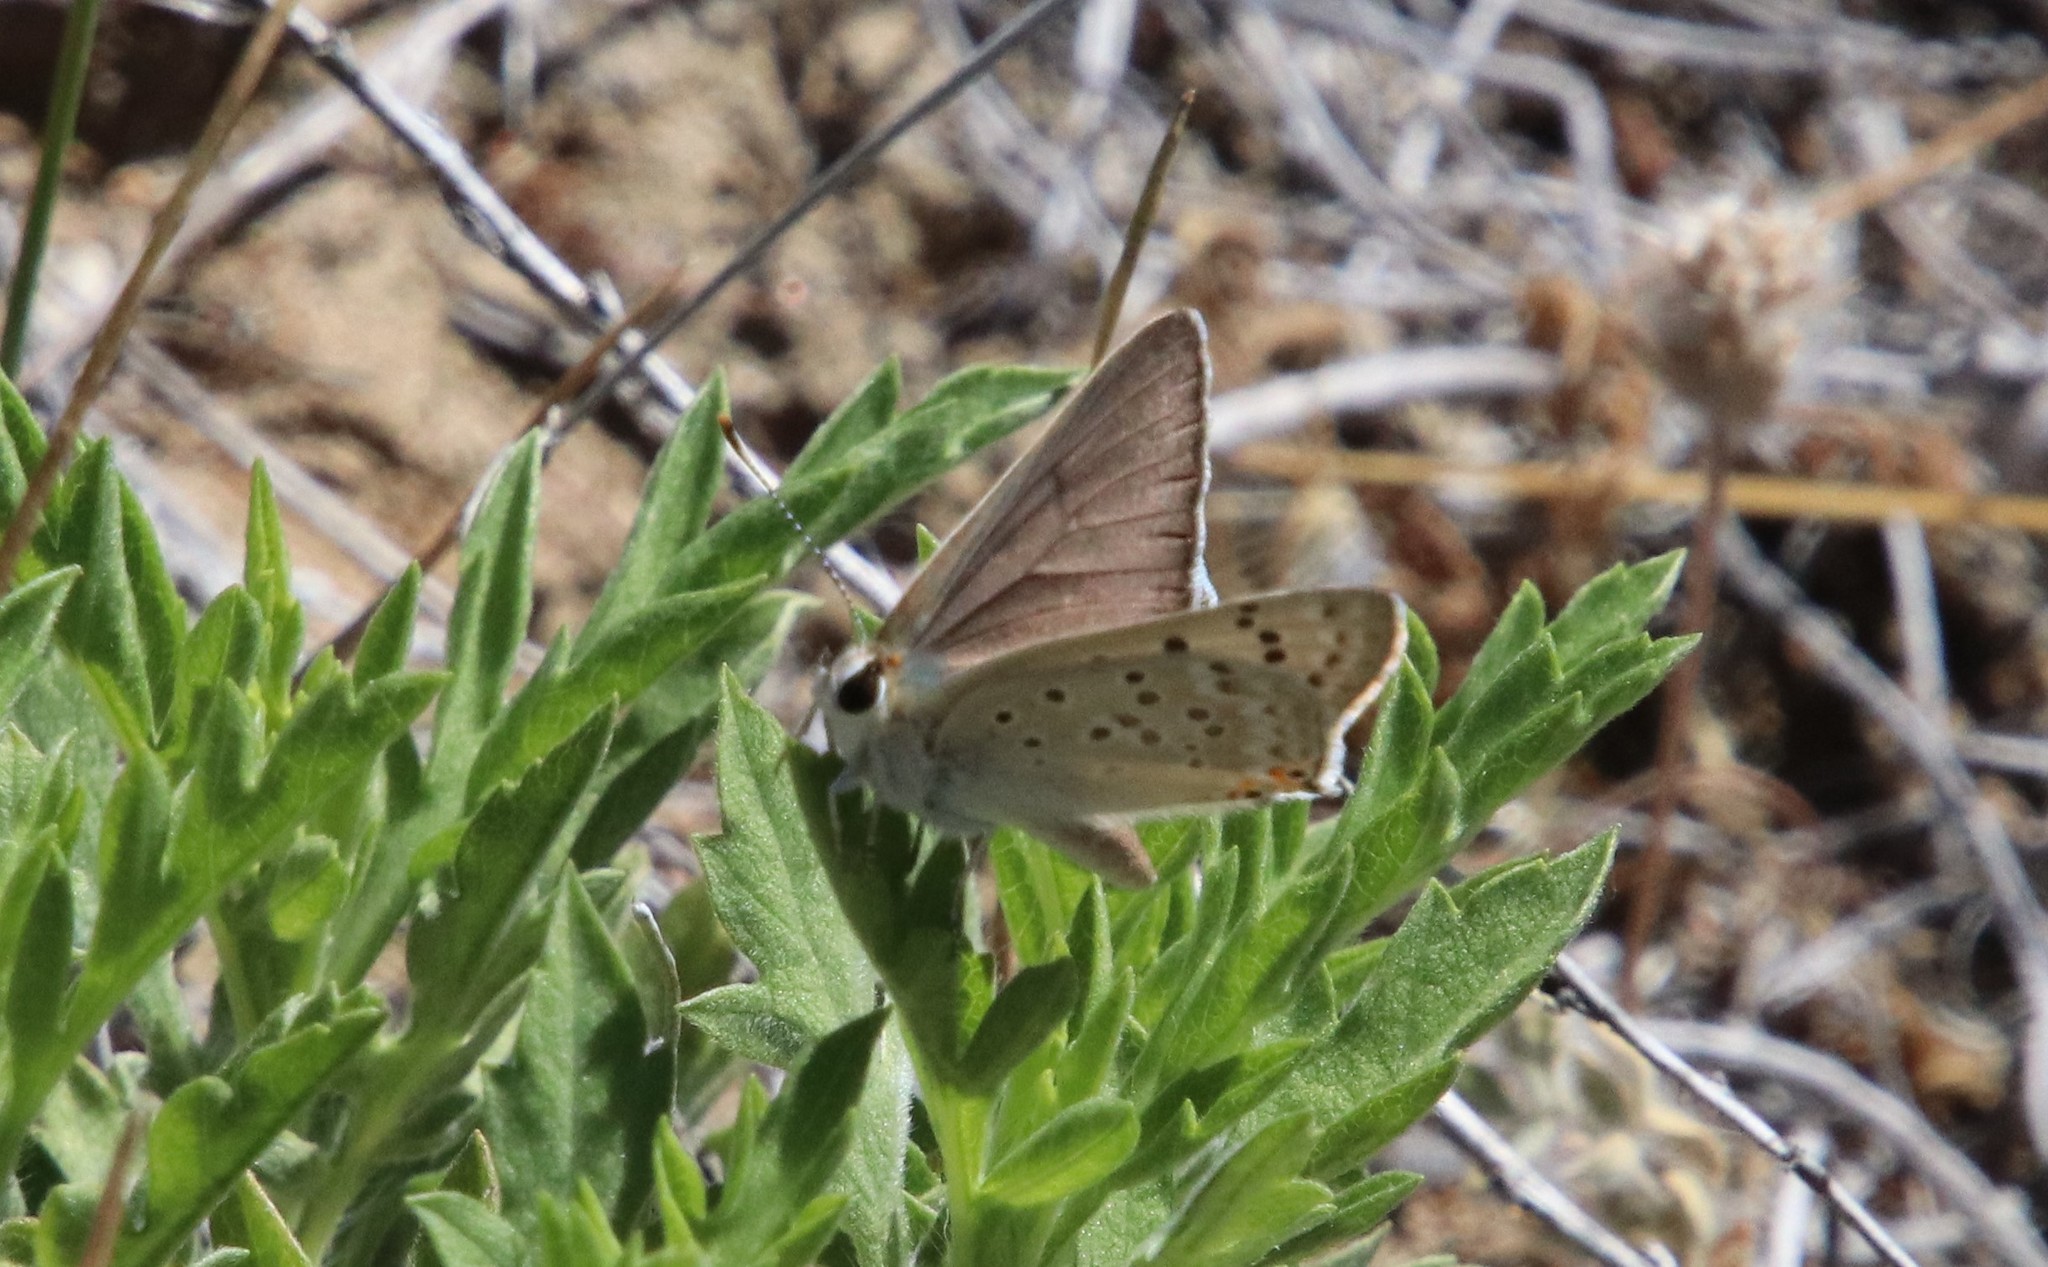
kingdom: Animalia
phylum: Arthropoda
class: Insecta
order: Lepidoptera
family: Lycaenidae
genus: Tharsalea
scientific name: Tharsalea xanthoides
